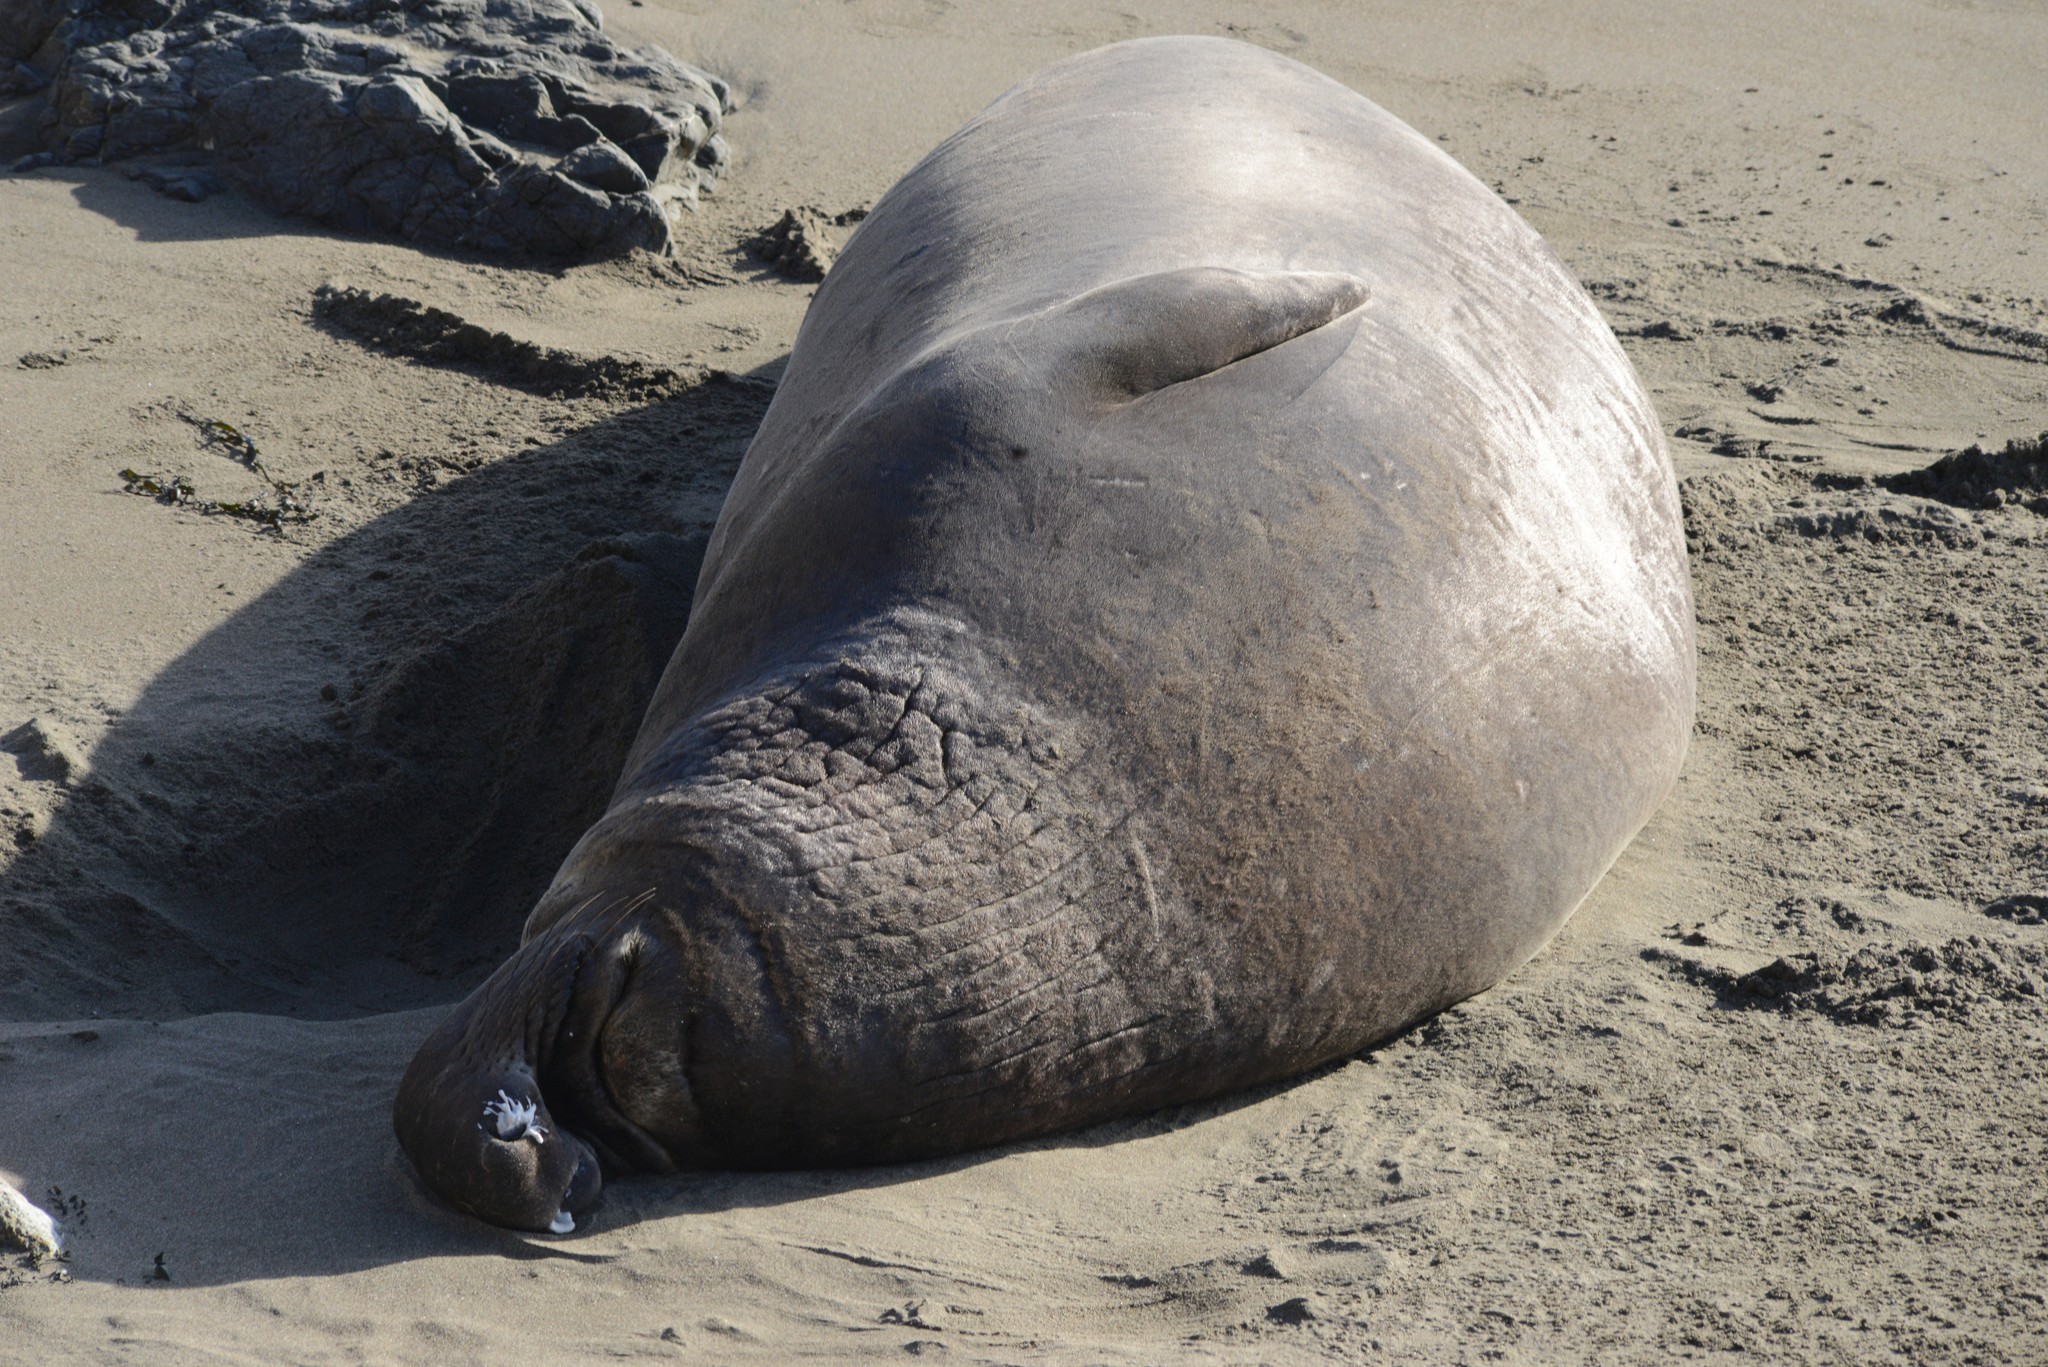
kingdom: Animalia
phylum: Chordata
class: Mammalia
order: Carnivora
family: Phocidae
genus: Mirounga
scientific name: Mirounga angustirostris
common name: Northern elephant seal
